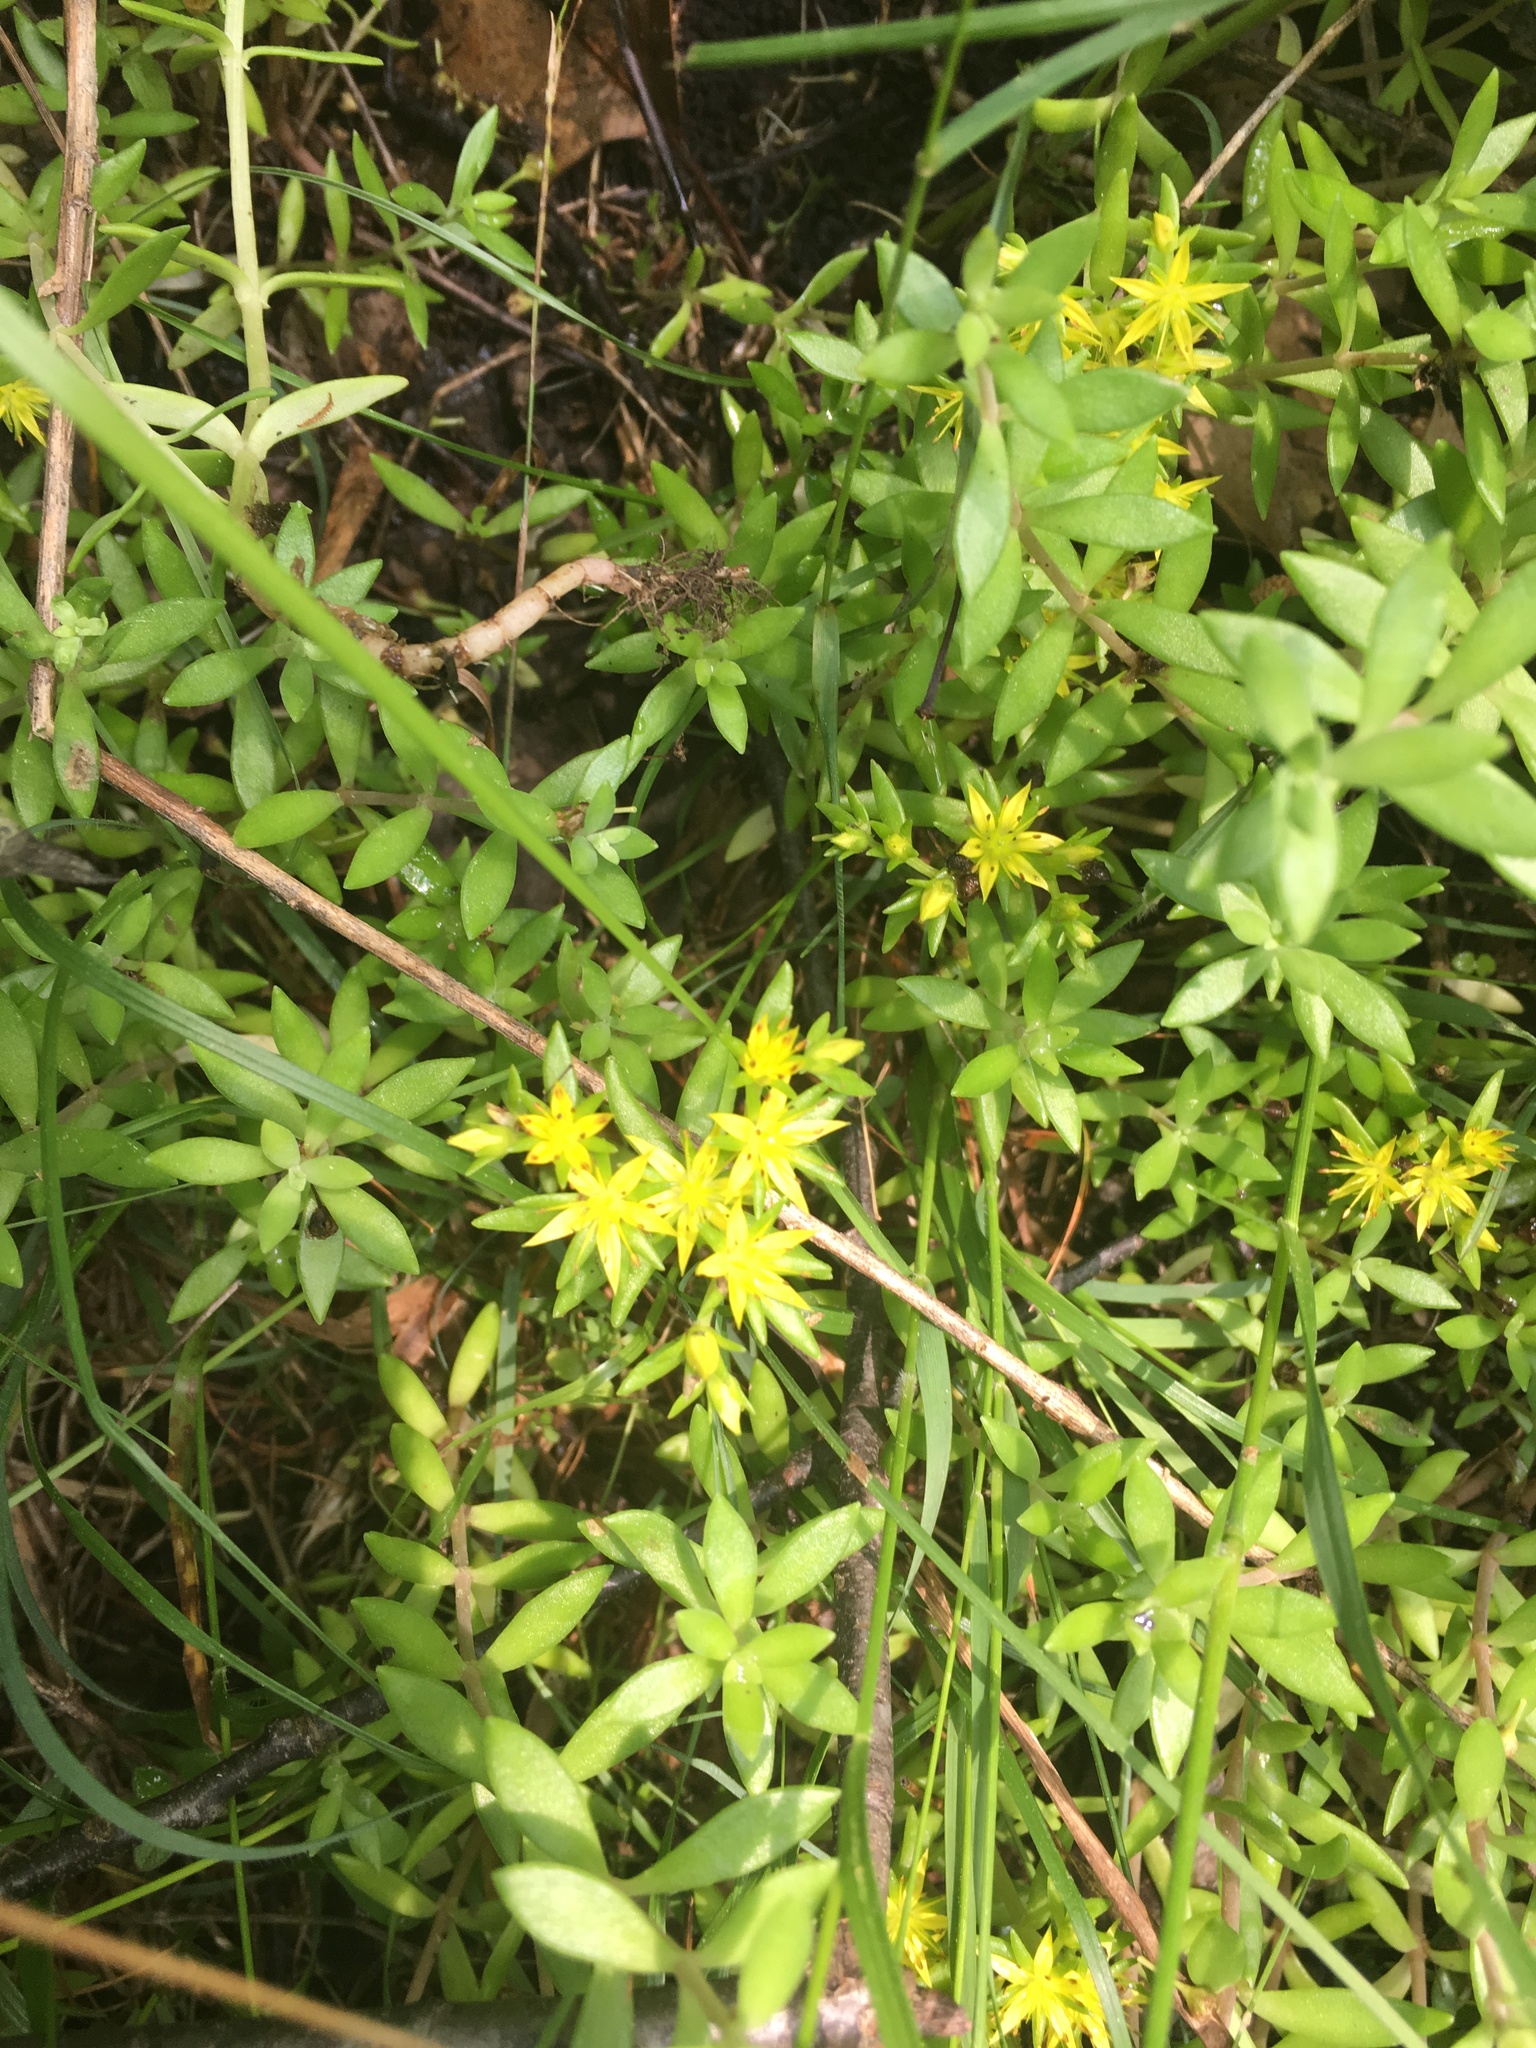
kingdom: Plantae
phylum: Tracheophyta
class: Magnoliopsida
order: Saxifragales
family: Crassulaceae
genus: Sedum
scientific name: Sedum sarmentosum
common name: Stringy stonecrop
